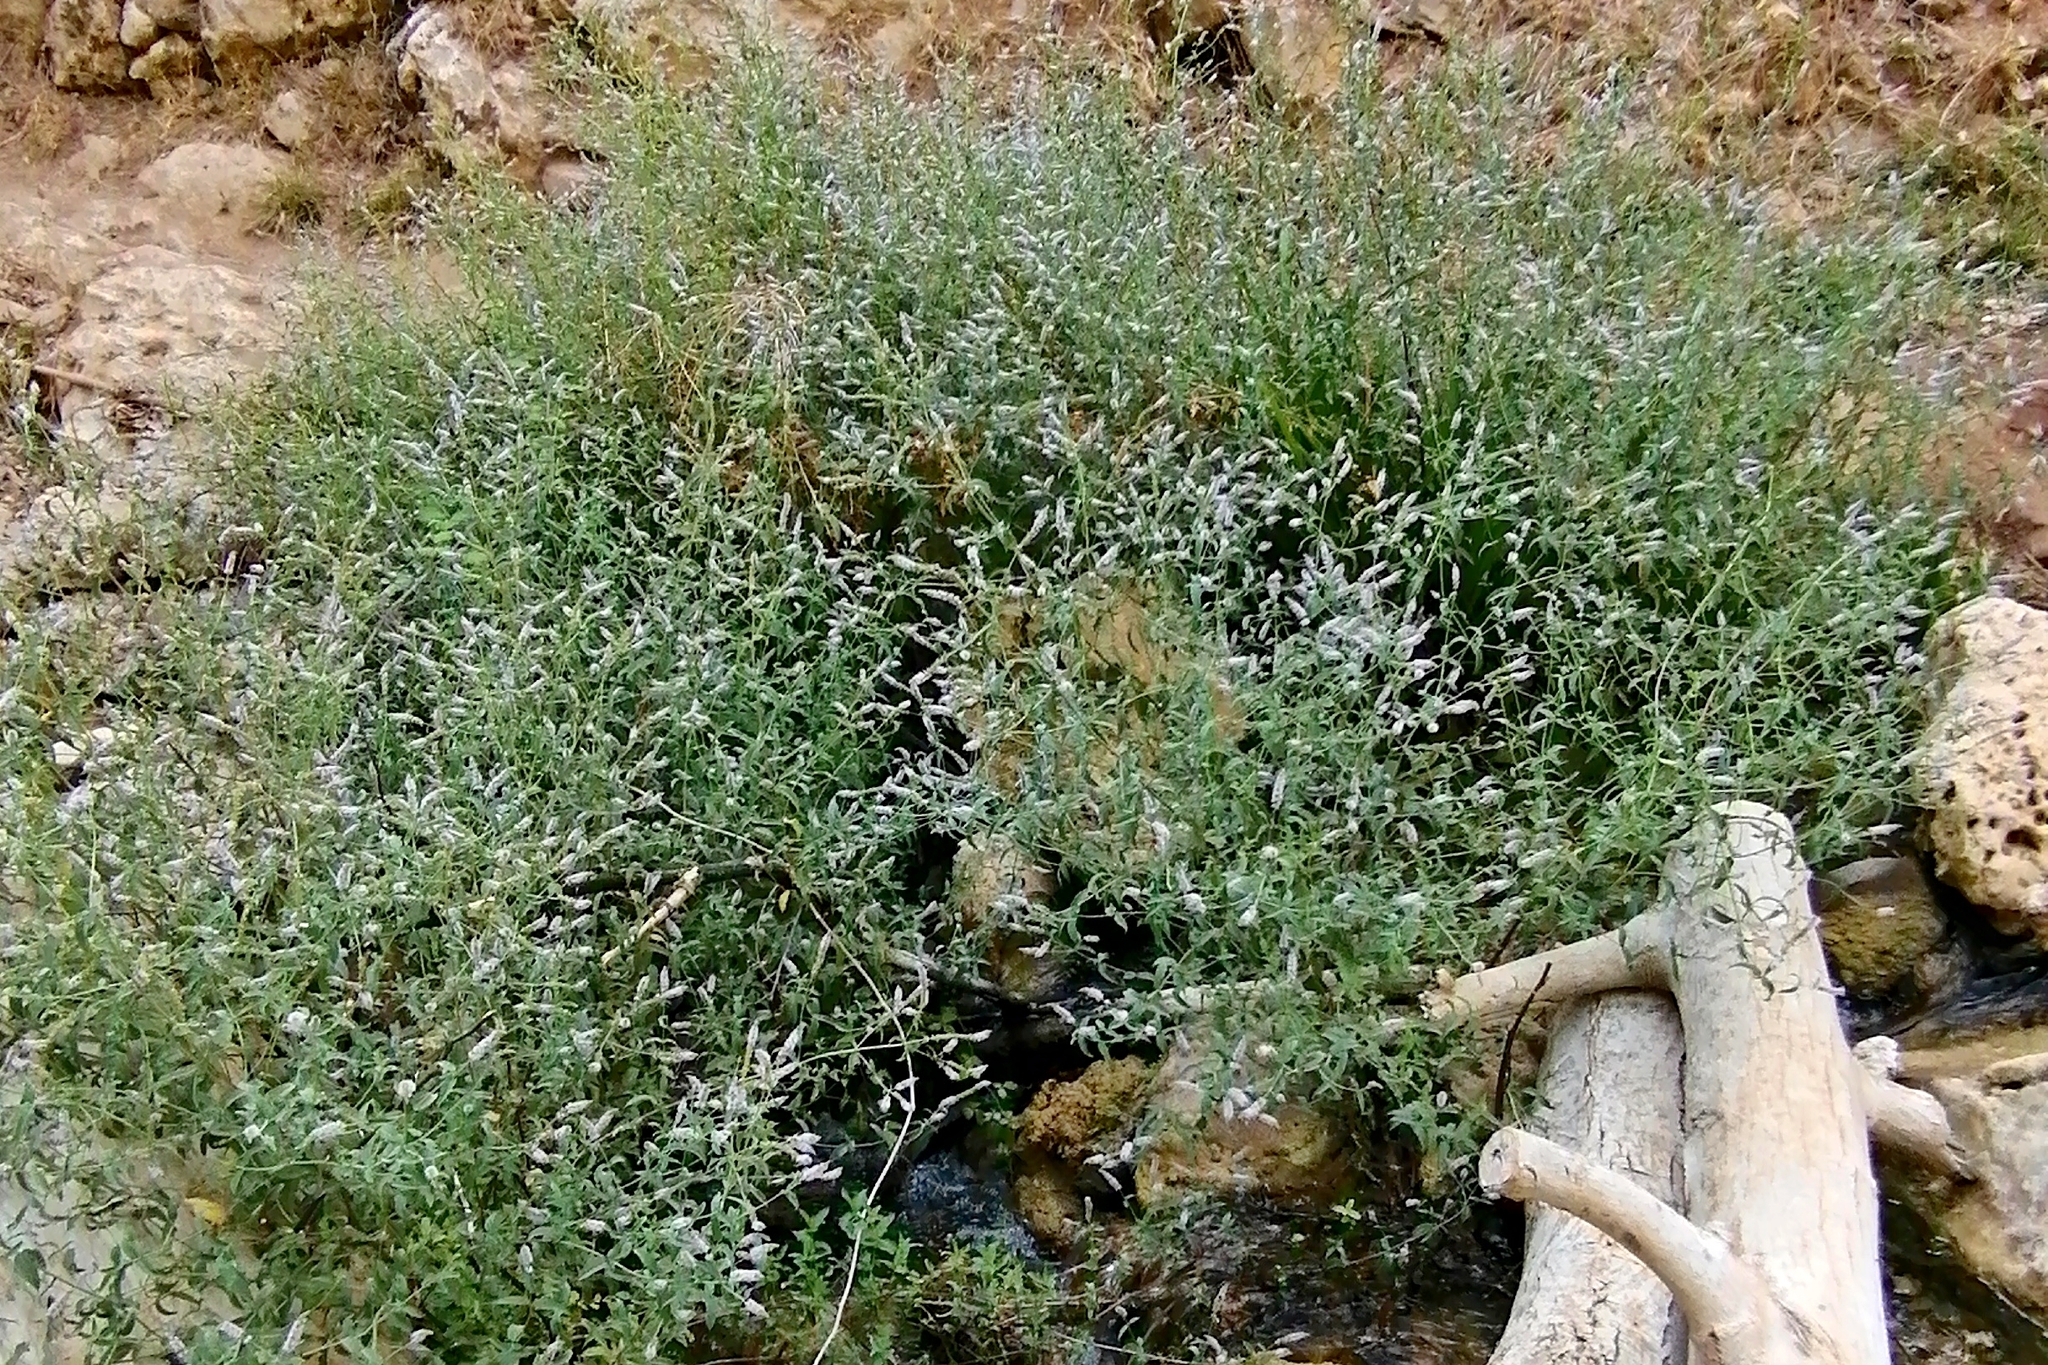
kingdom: Plantae
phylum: Tracheophyta
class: Magnoliopsida
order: Lamiales
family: Lamiaceae
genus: Mentha
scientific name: Mentha longifolia
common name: Horse mint
